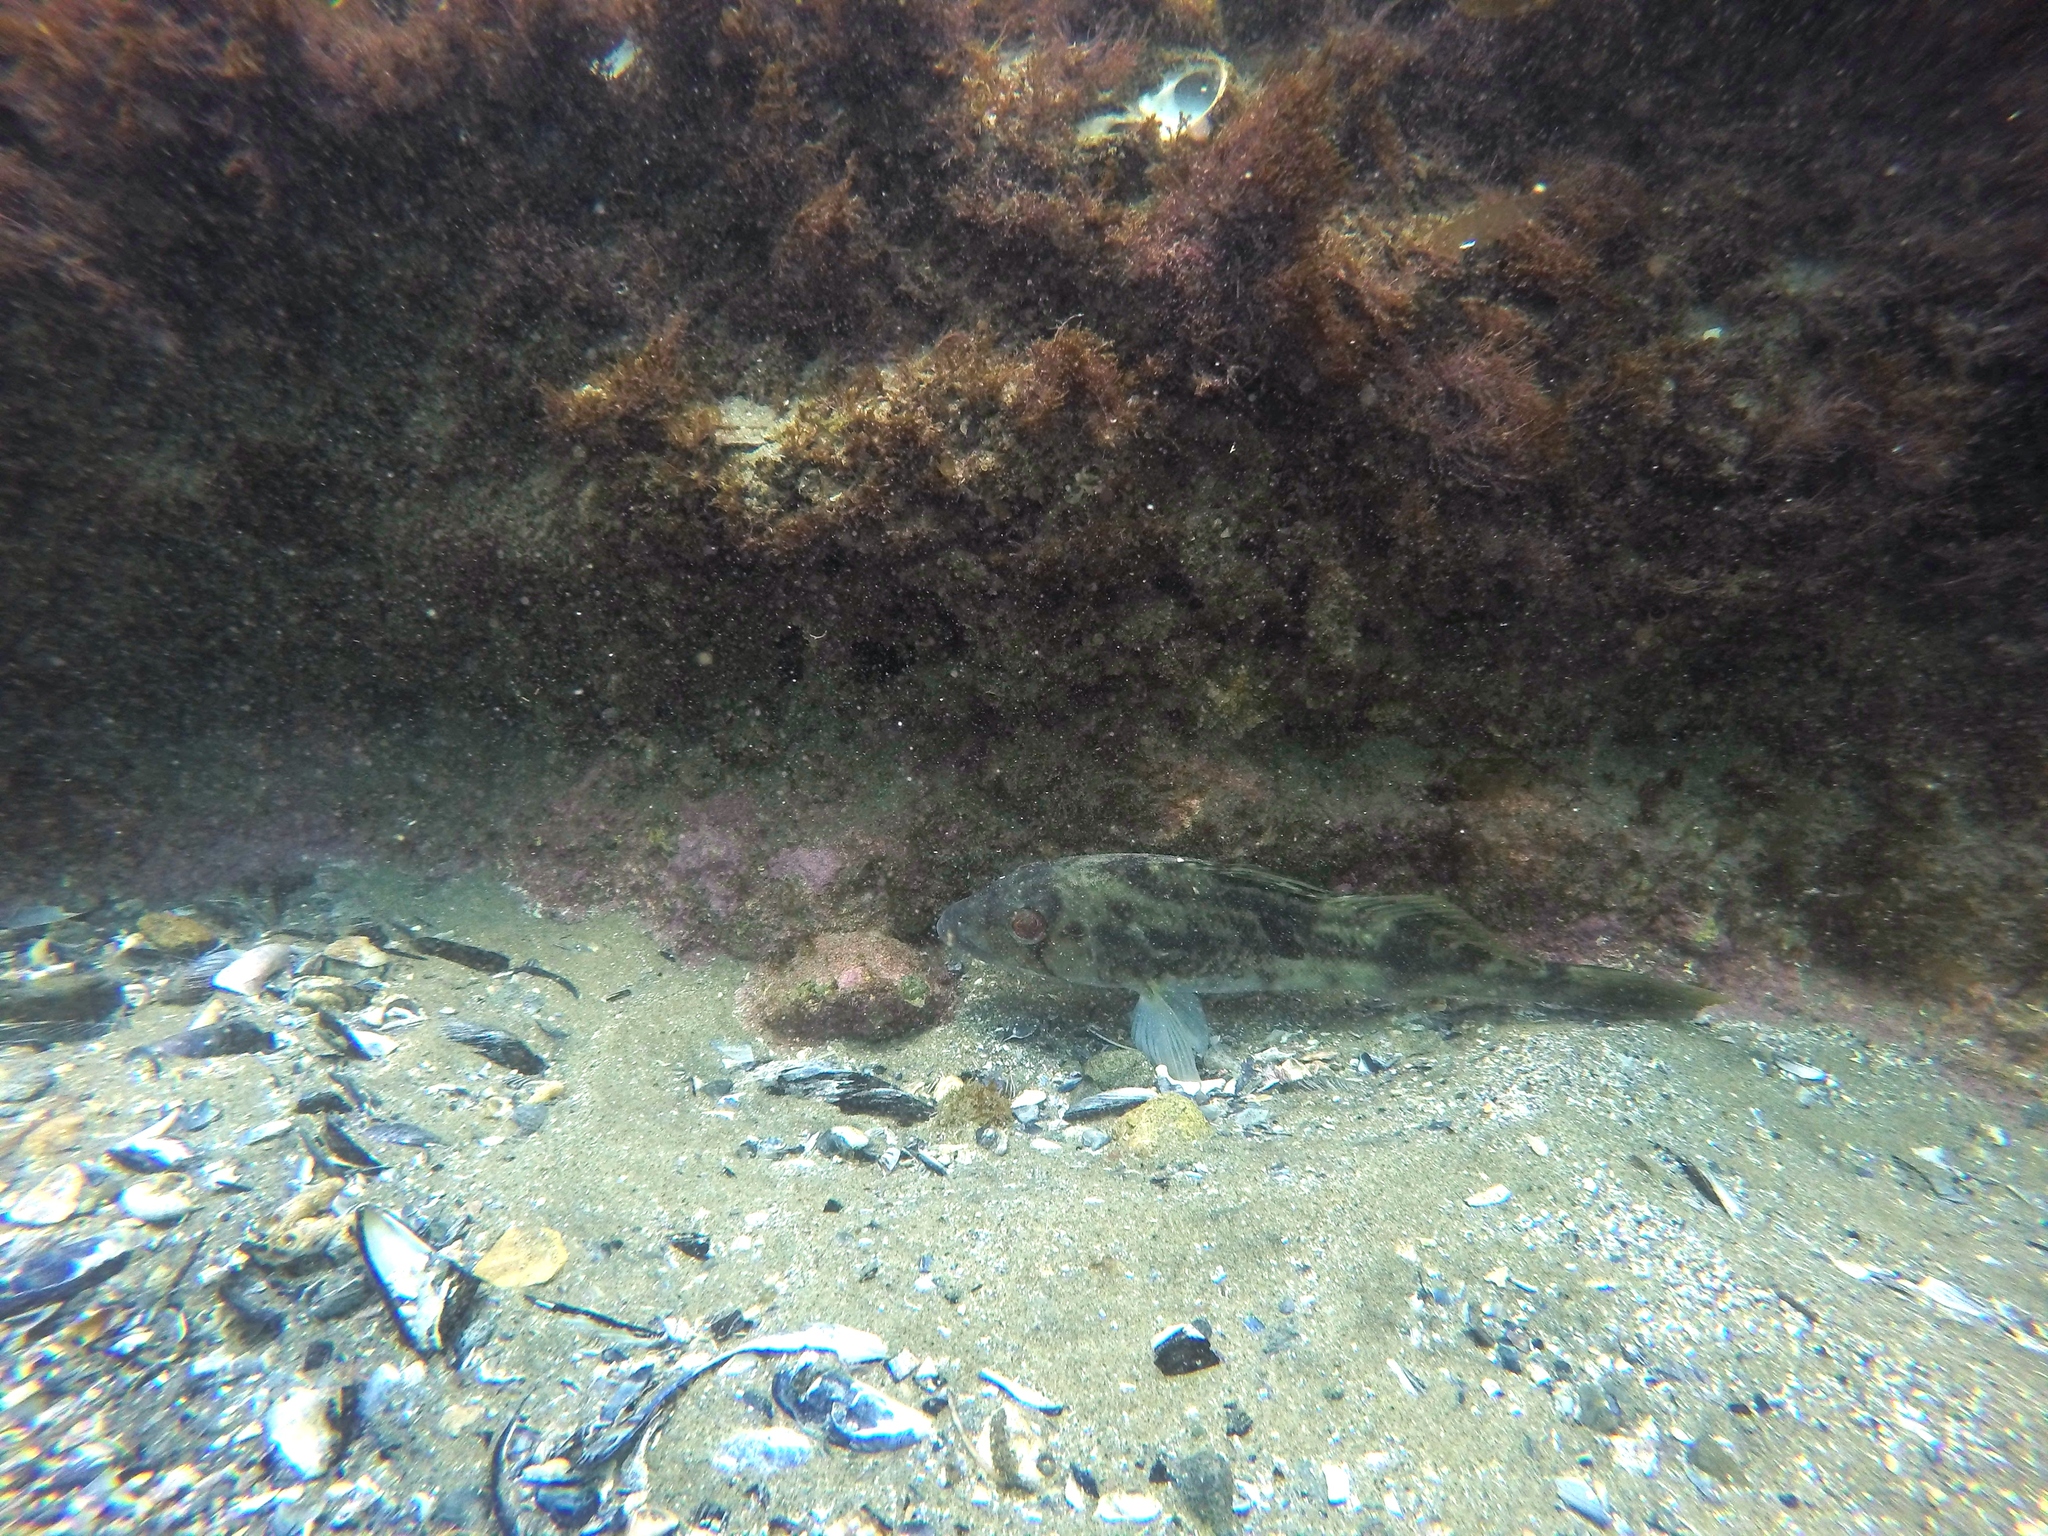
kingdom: Animalia
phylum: Chordata
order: Perciformes
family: Serranidae
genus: Paralabrax
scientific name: Paralabrax nebulifer
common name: Barred sand bass
